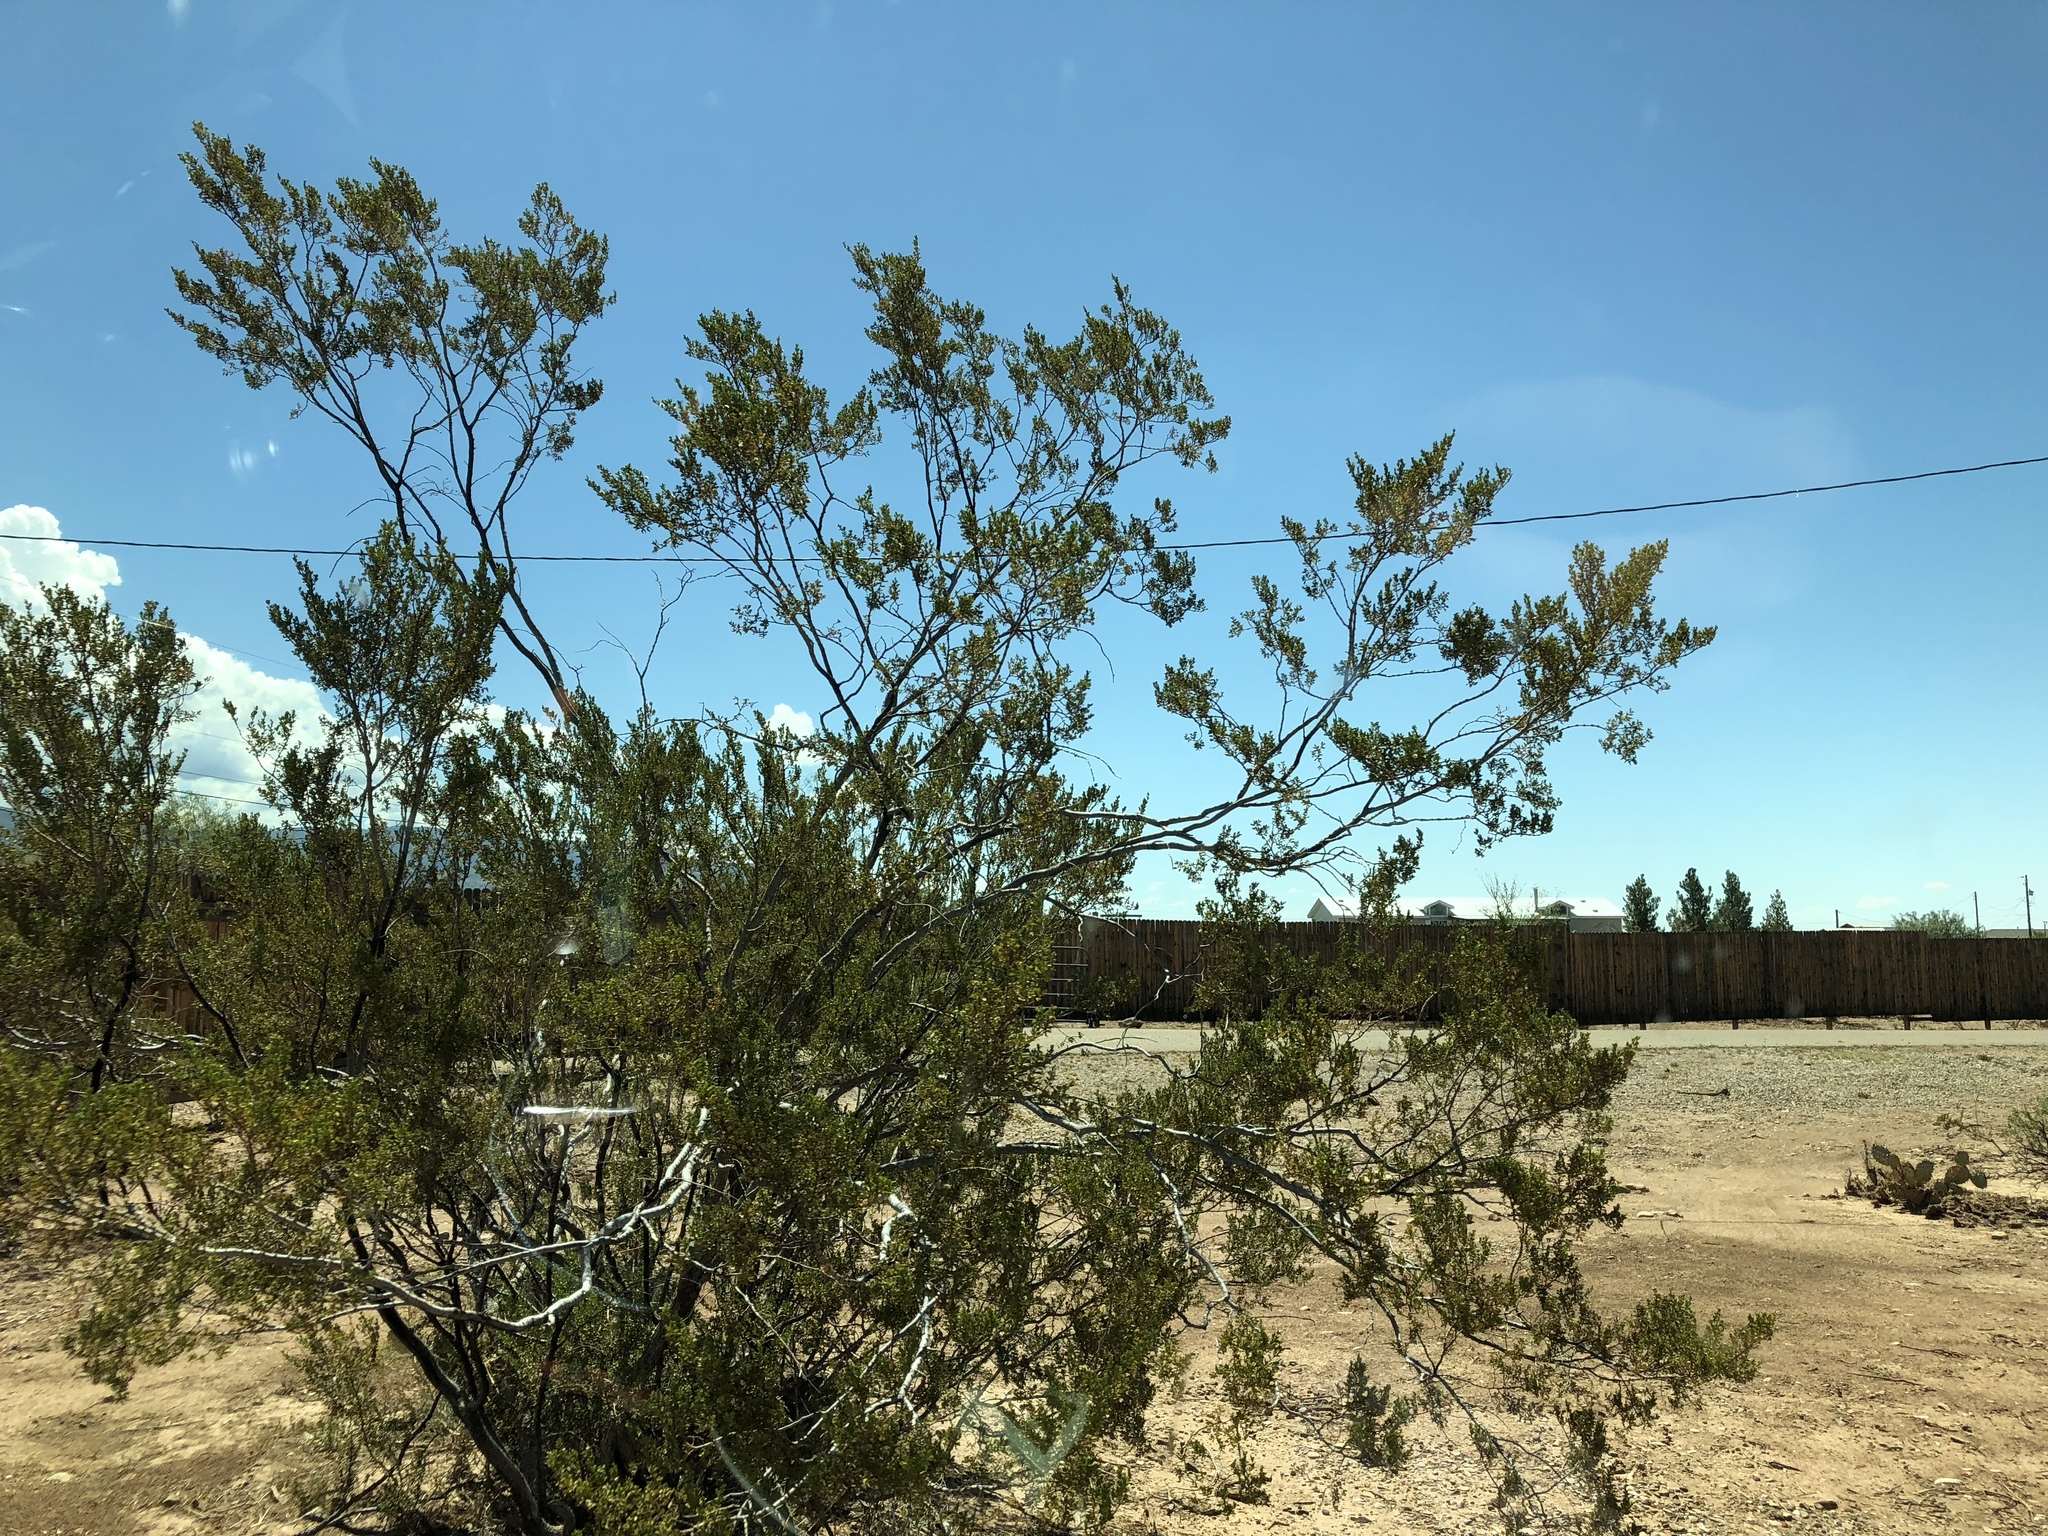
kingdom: Plantae
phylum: Tracheophyta
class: Magnoliopsida
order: Zygophyllales
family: Zygophyllaceae
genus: Larrea
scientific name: Larrea tridentata
